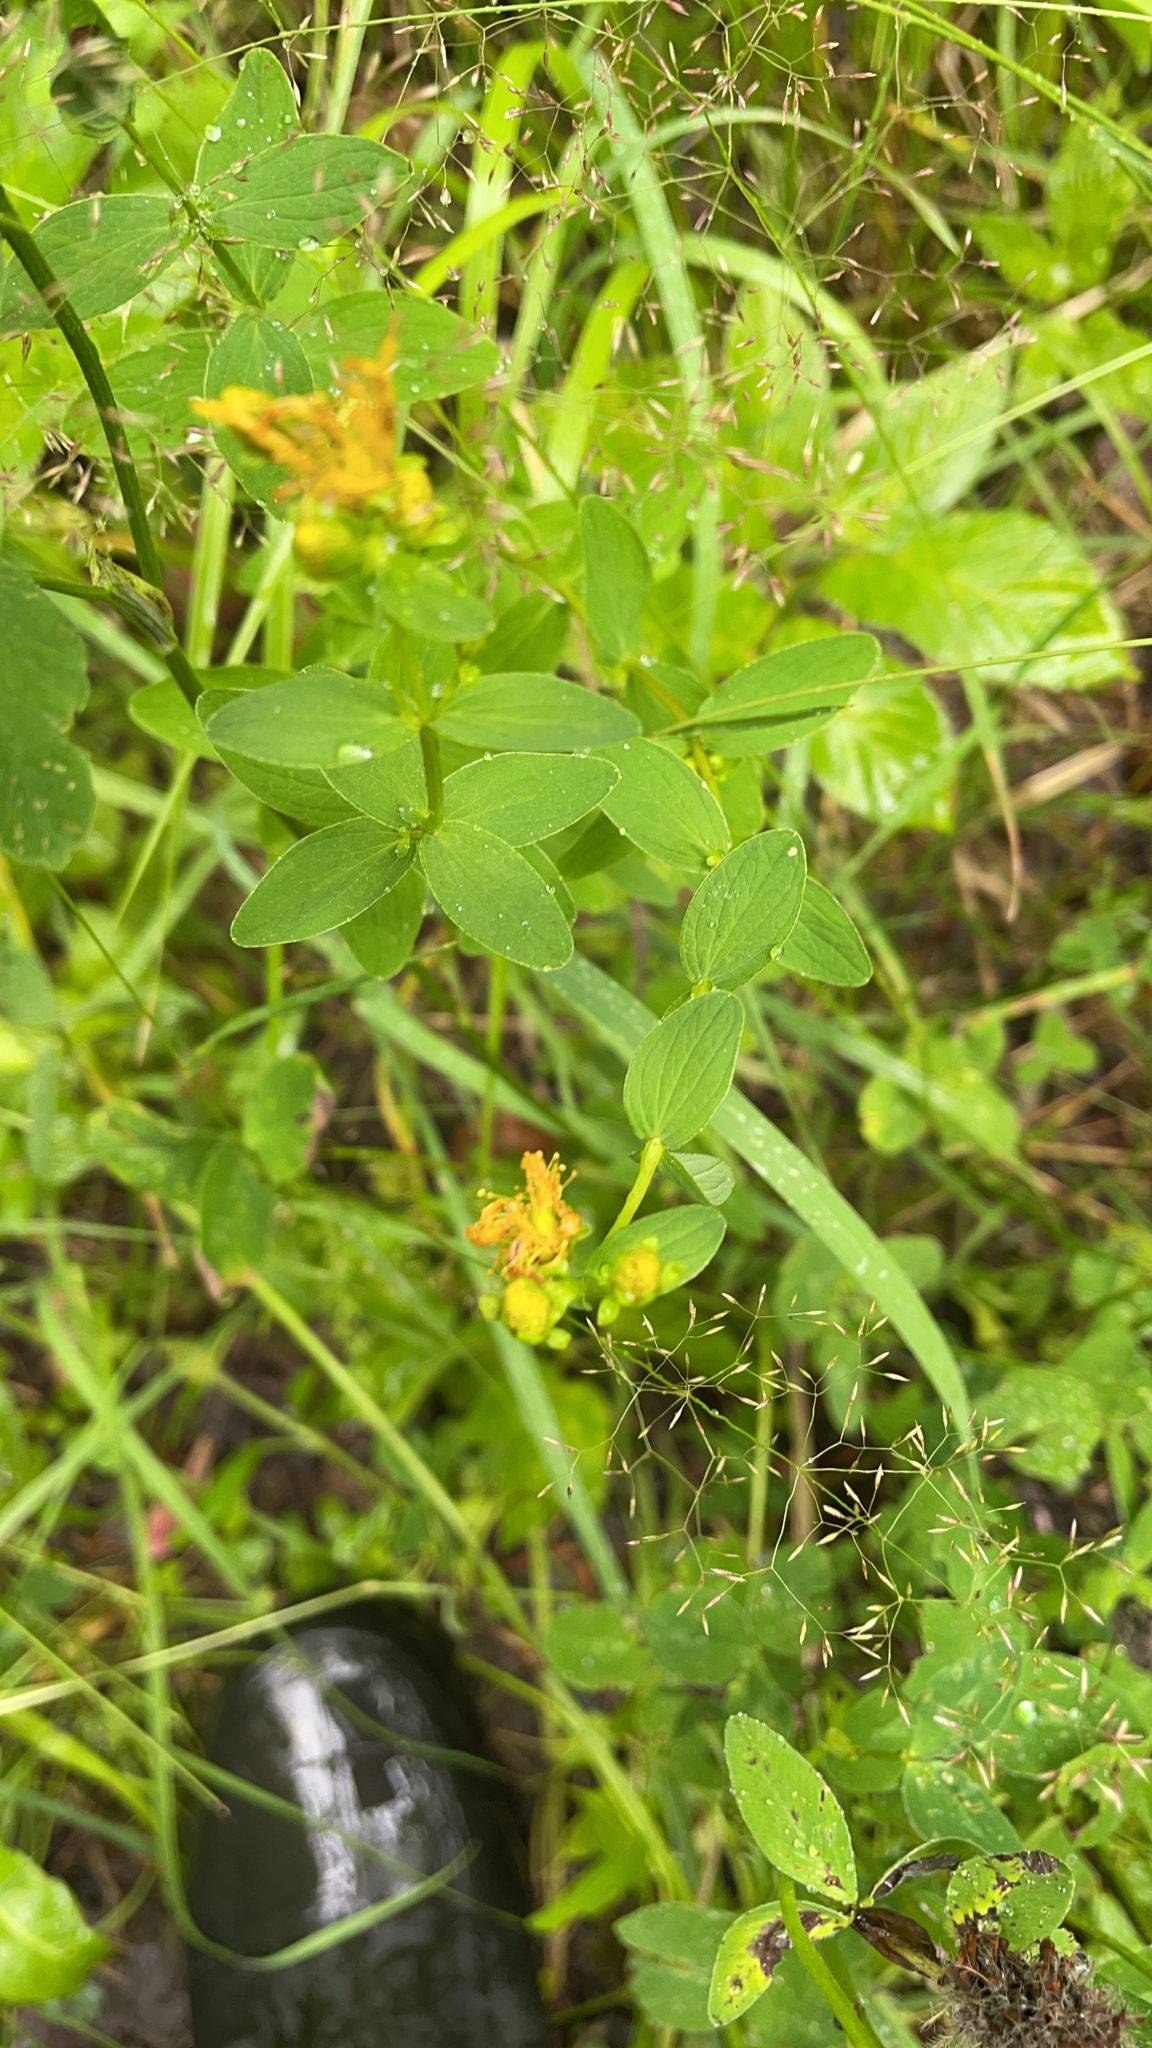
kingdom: Plantae
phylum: Tracheophyta
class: Magnoliopsida
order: Malpighiales
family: Hypericaceae
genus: Hypericum
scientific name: Hypericum maculatum
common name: Imperforate st. john's-wort
